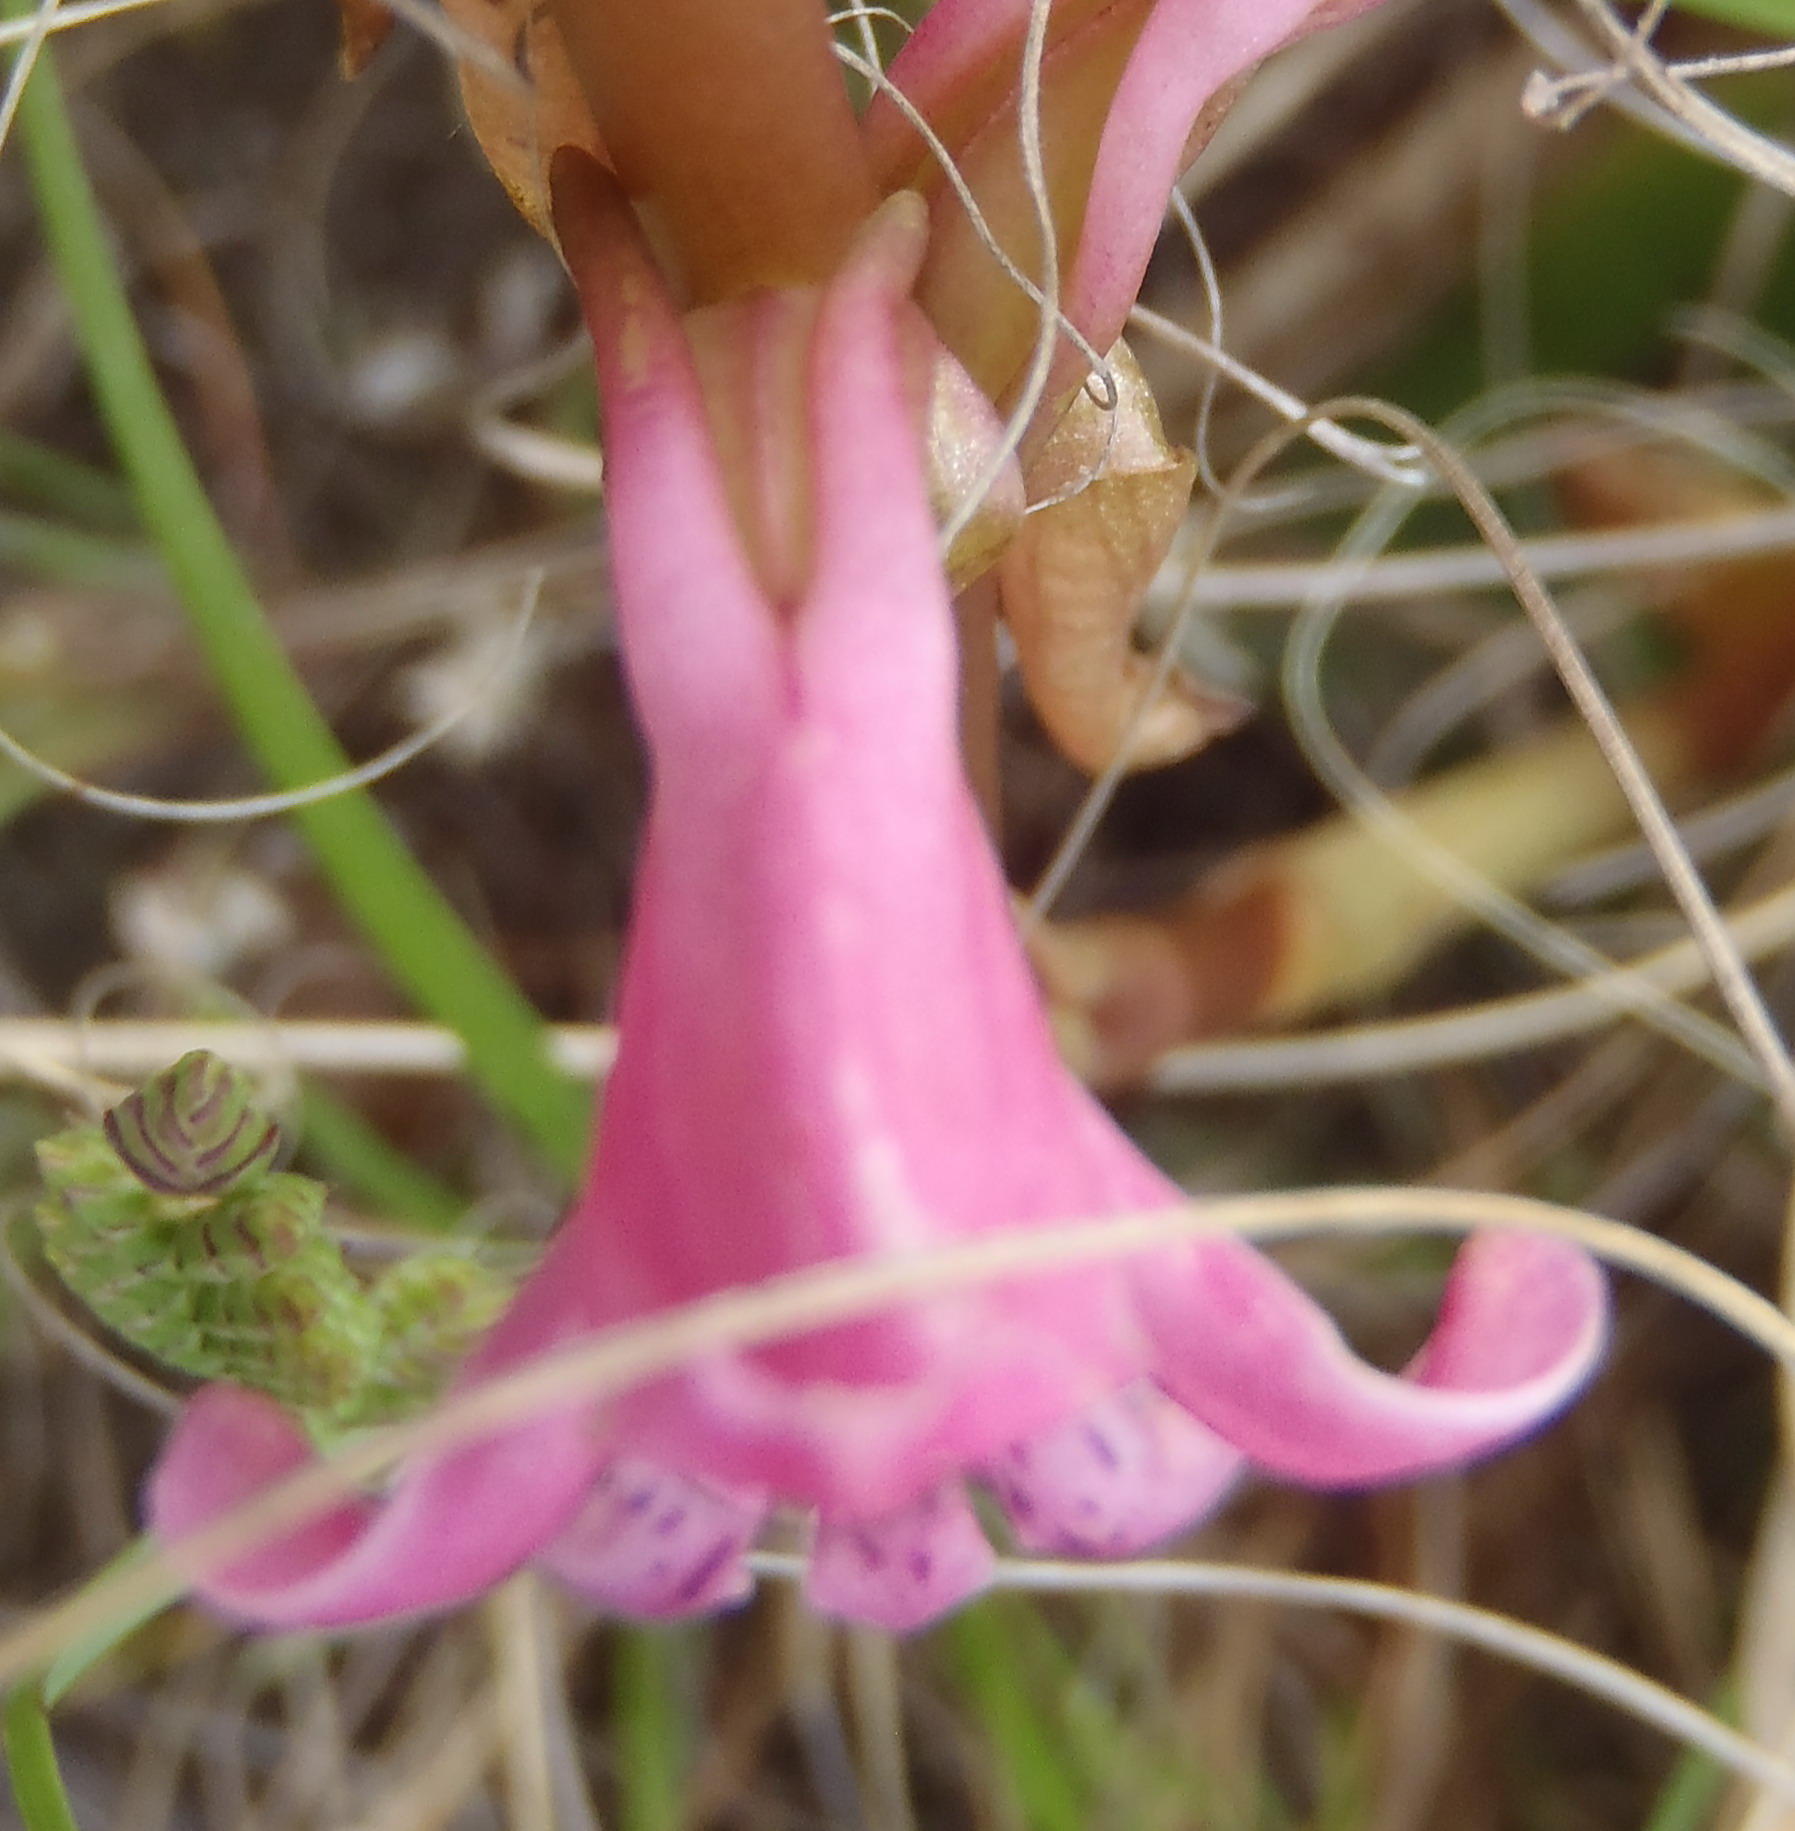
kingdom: Plantae
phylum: Tracheophyta
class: Liliopsida
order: Asparagales
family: Orchidaceae
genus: Satyrium
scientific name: Satyrium erectum
